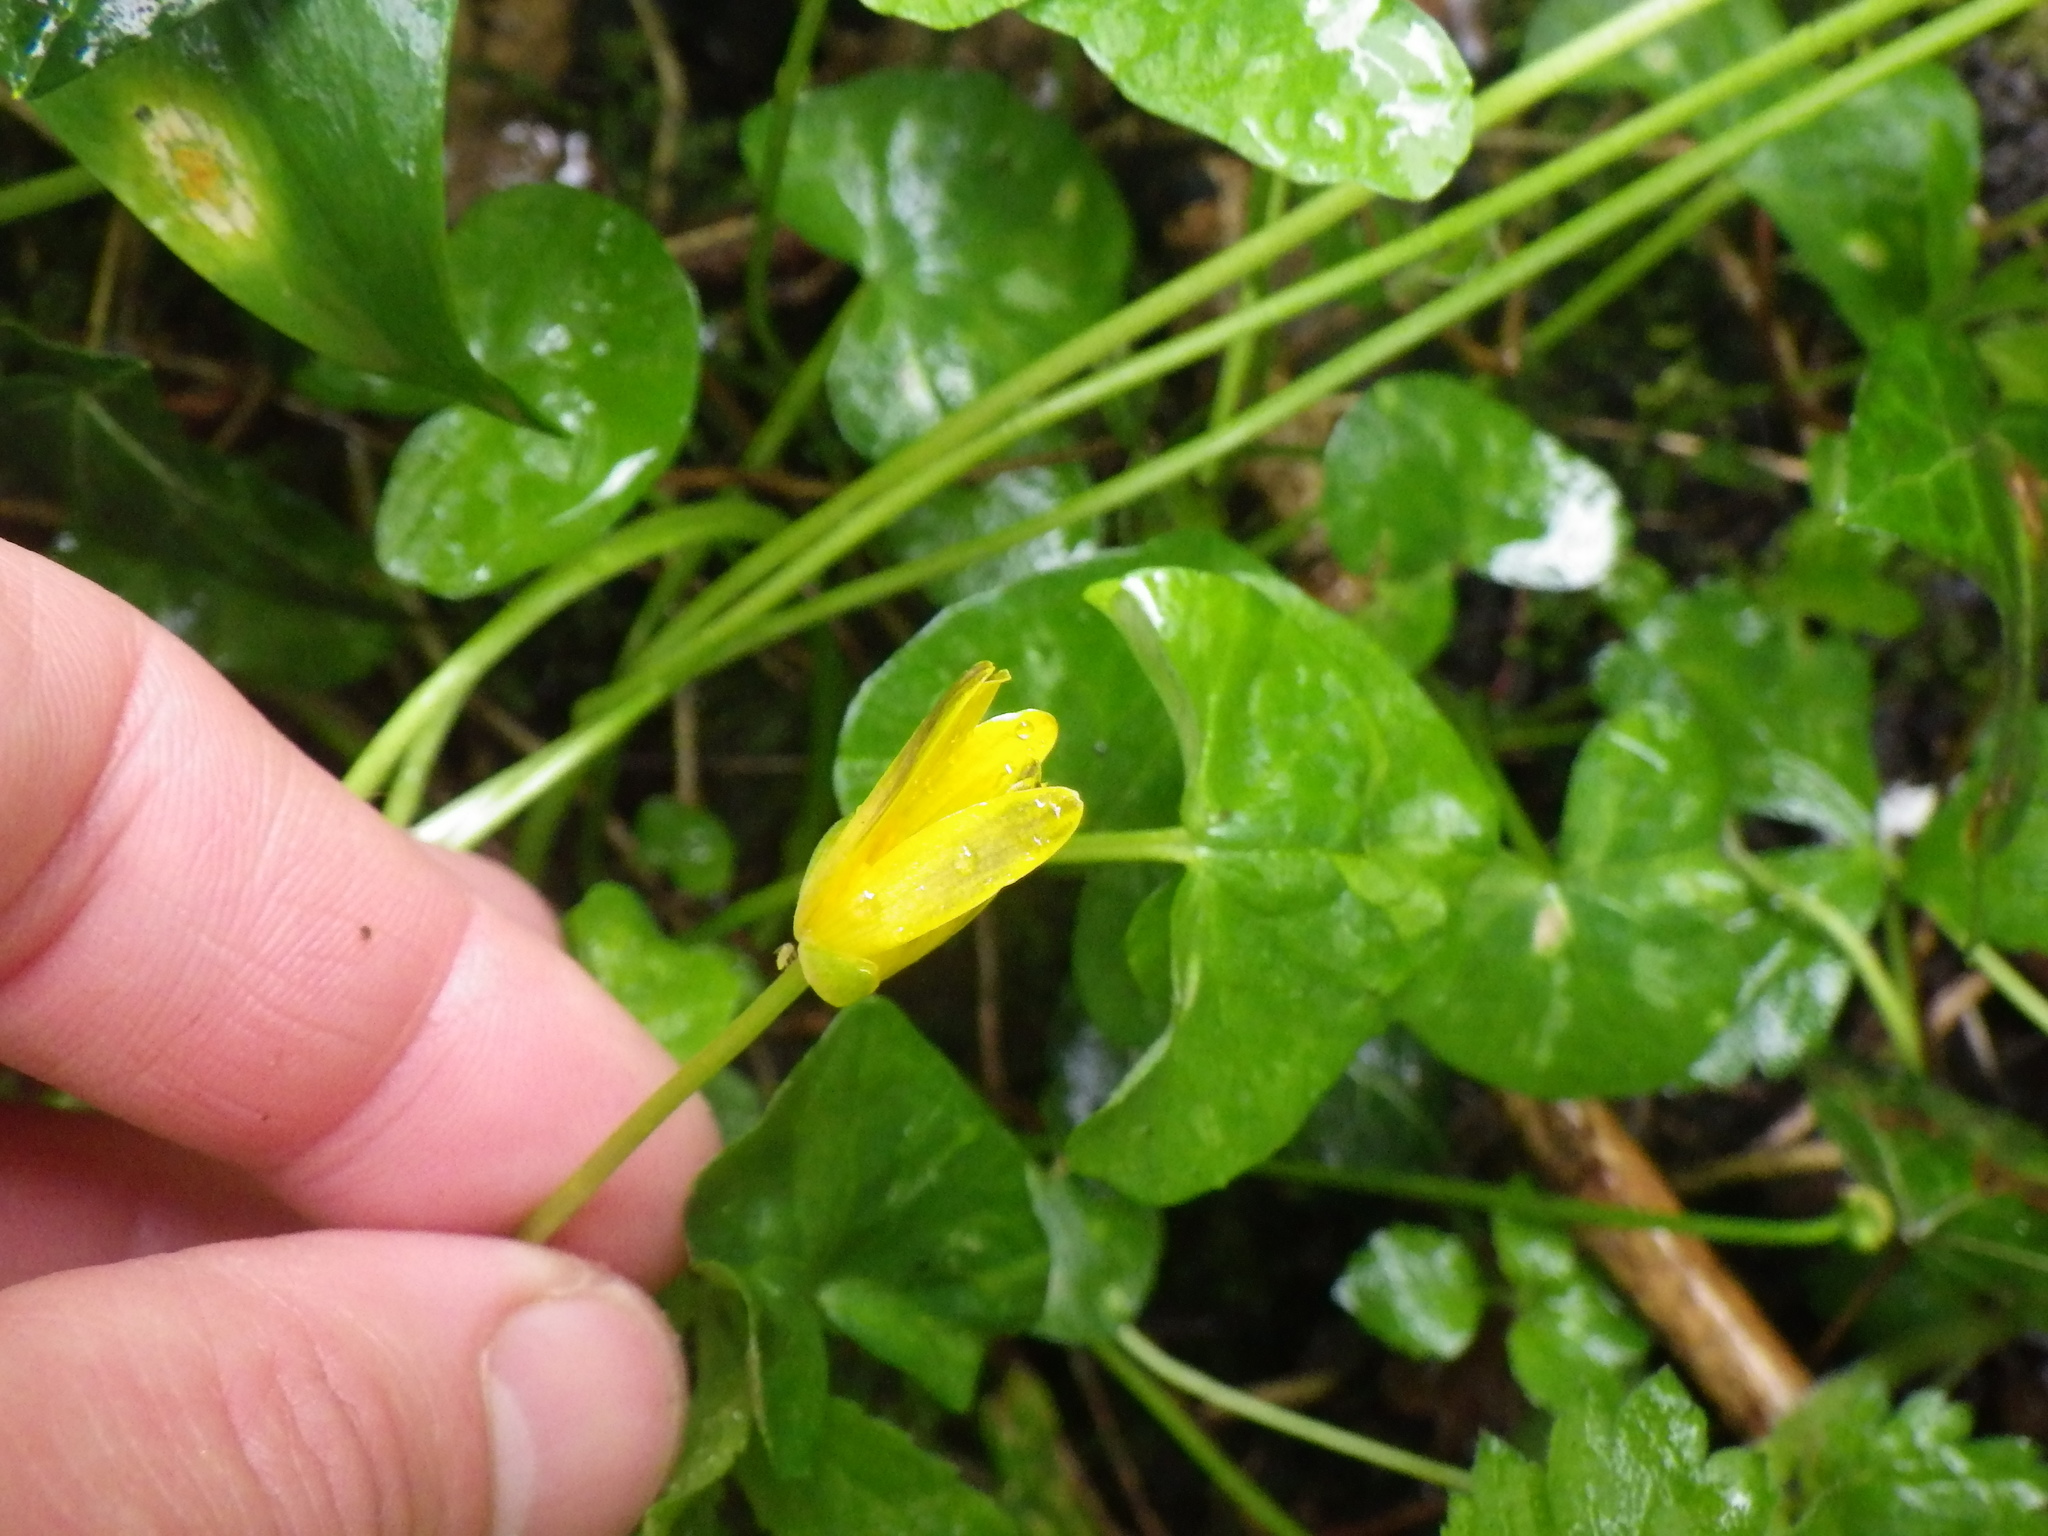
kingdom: Plantae
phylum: Tracheophyta
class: Magnoliopsida
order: Ranunculales
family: Ranunculaceae
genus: Ficaria
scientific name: Ficaria verna
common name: Lesser celandine
